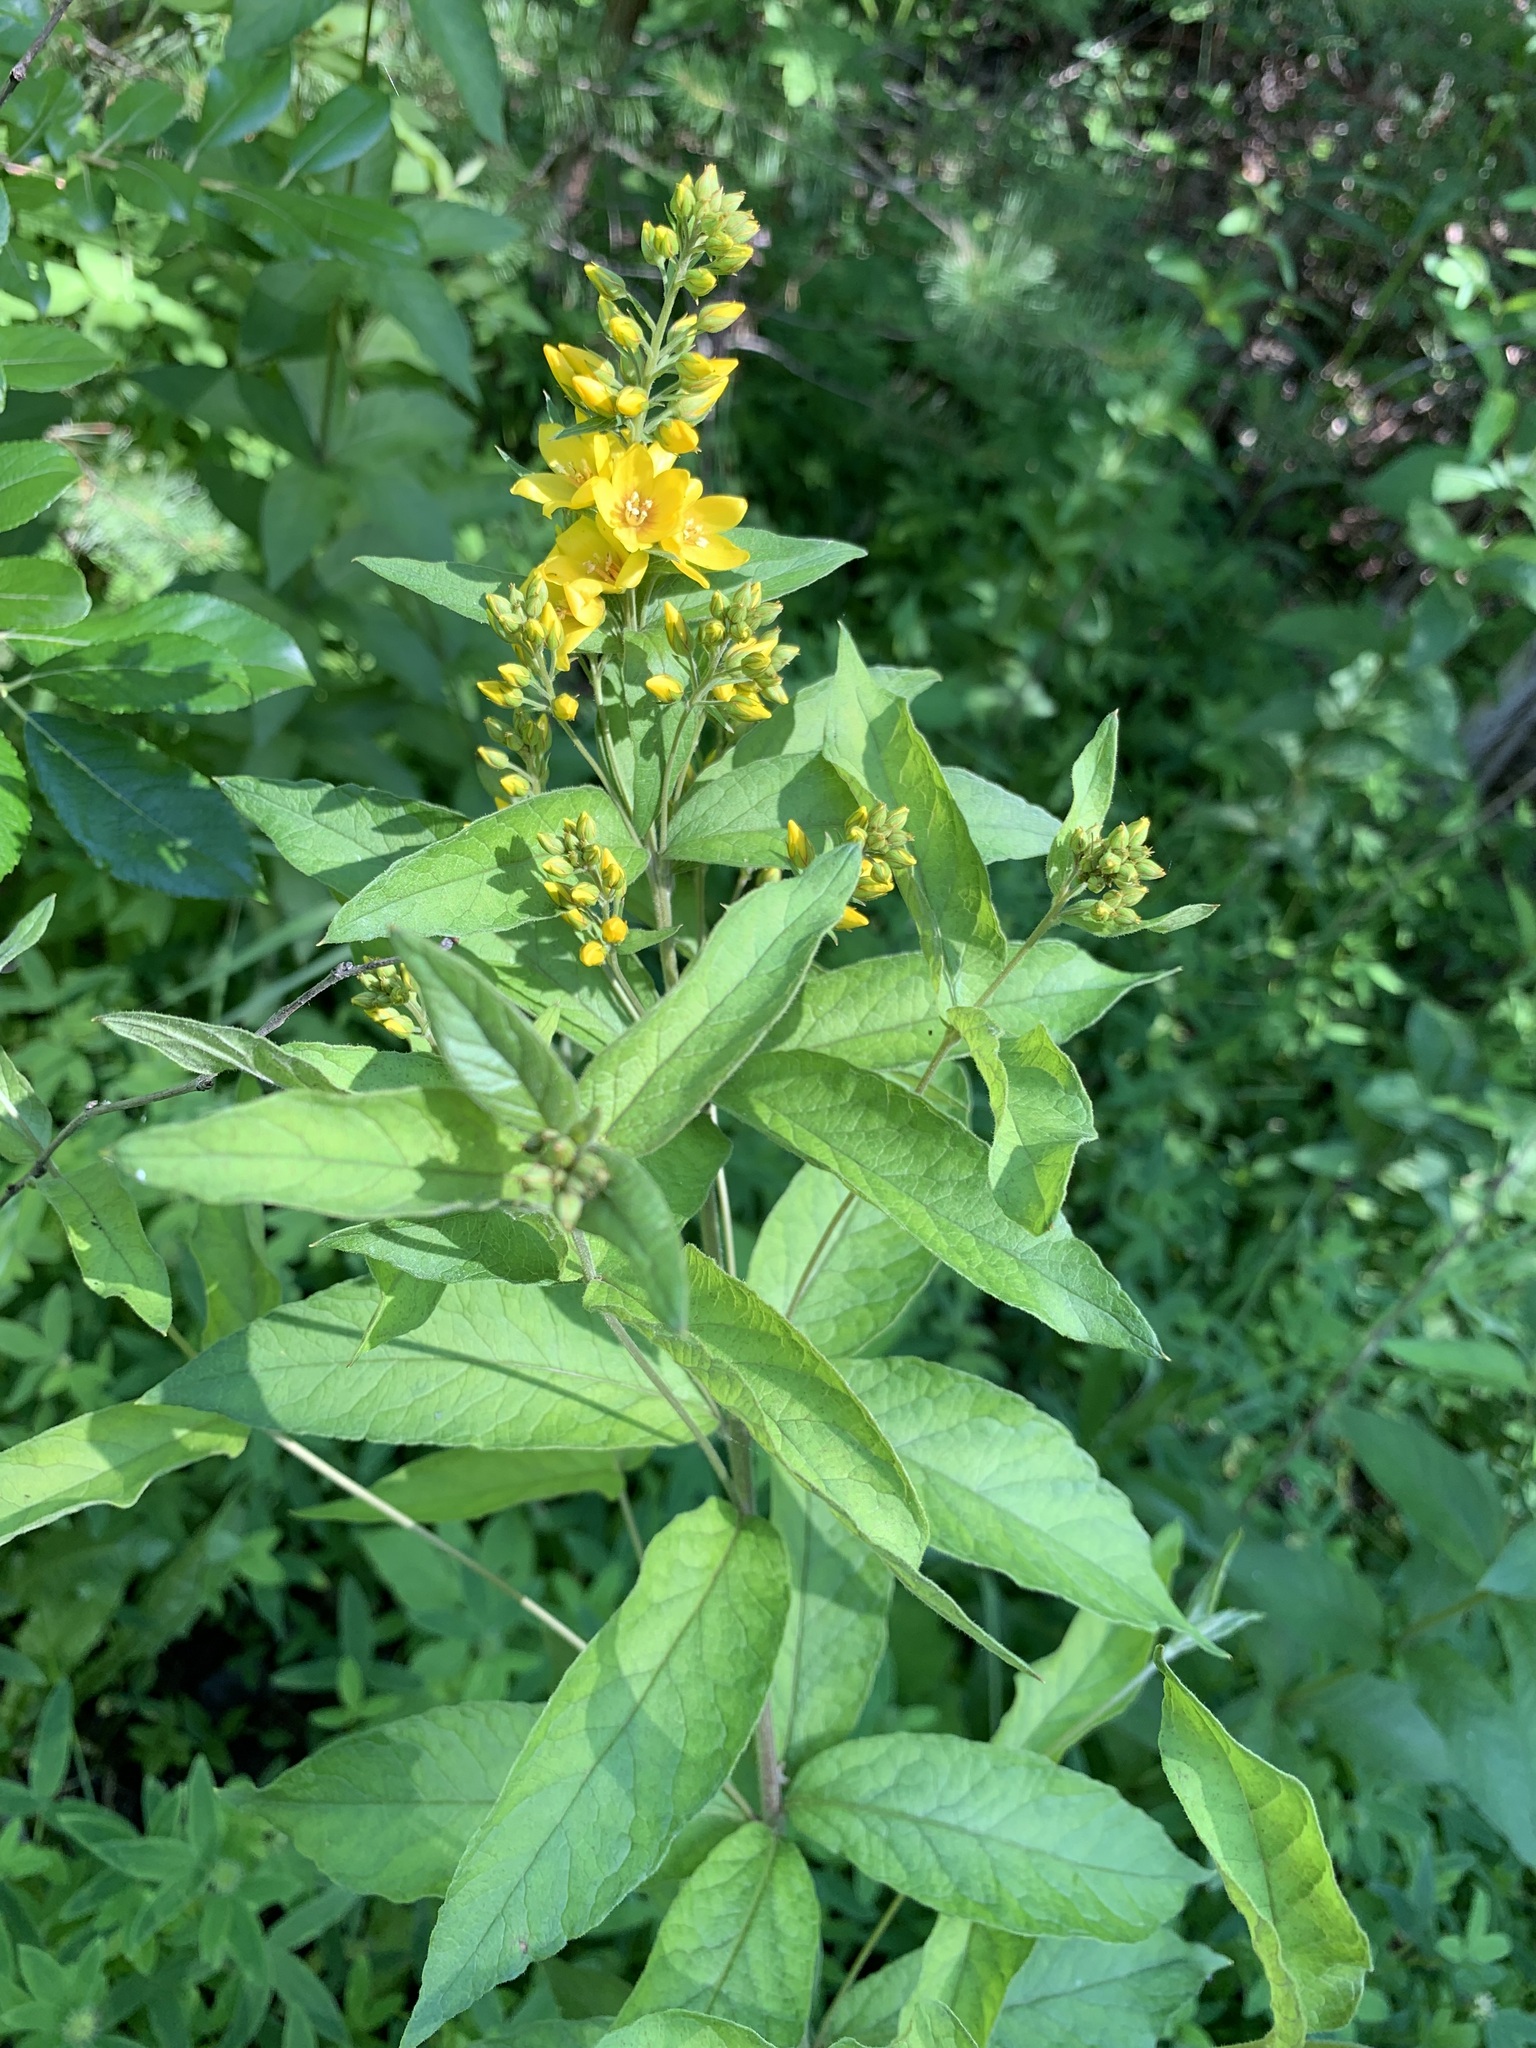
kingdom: Plantae
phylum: Tracheophyta
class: Magnoliopsida
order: Ericales
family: Primulaceae
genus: Lysimachia
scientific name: Lysimachia vulgaris
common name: Yellow loosestrife
